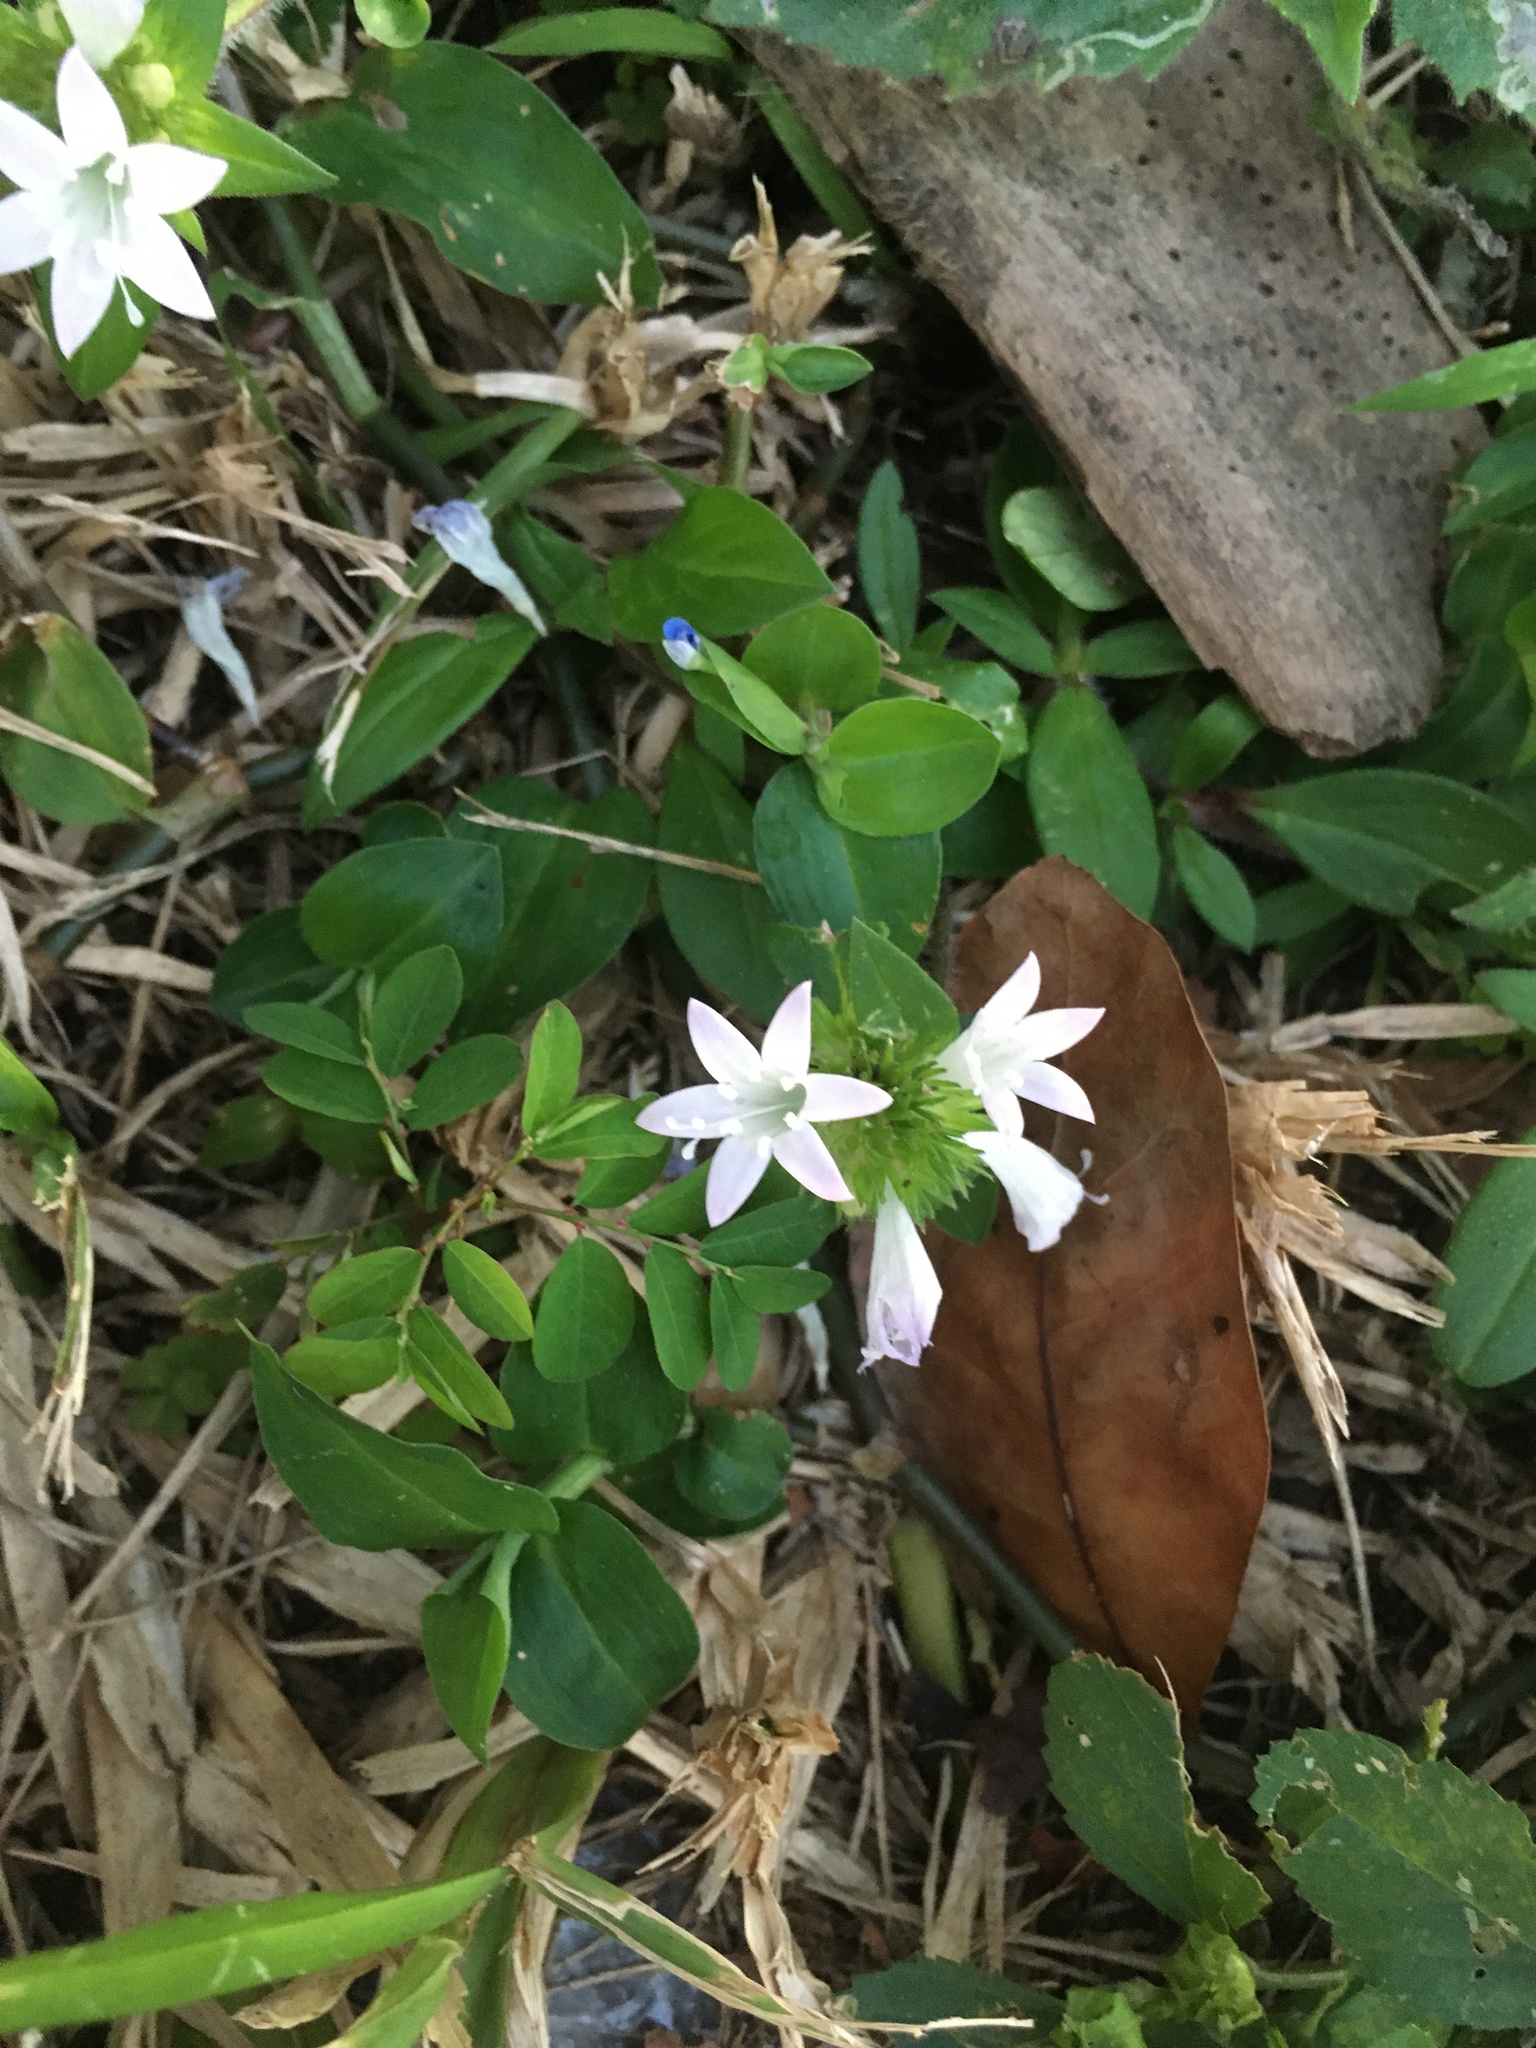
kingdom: Plantae
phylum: Tracheophyta
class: Magnoliopsida
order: Gentianales
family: Rubiaceae
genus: Richardia
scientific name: Richardia grandiflora
